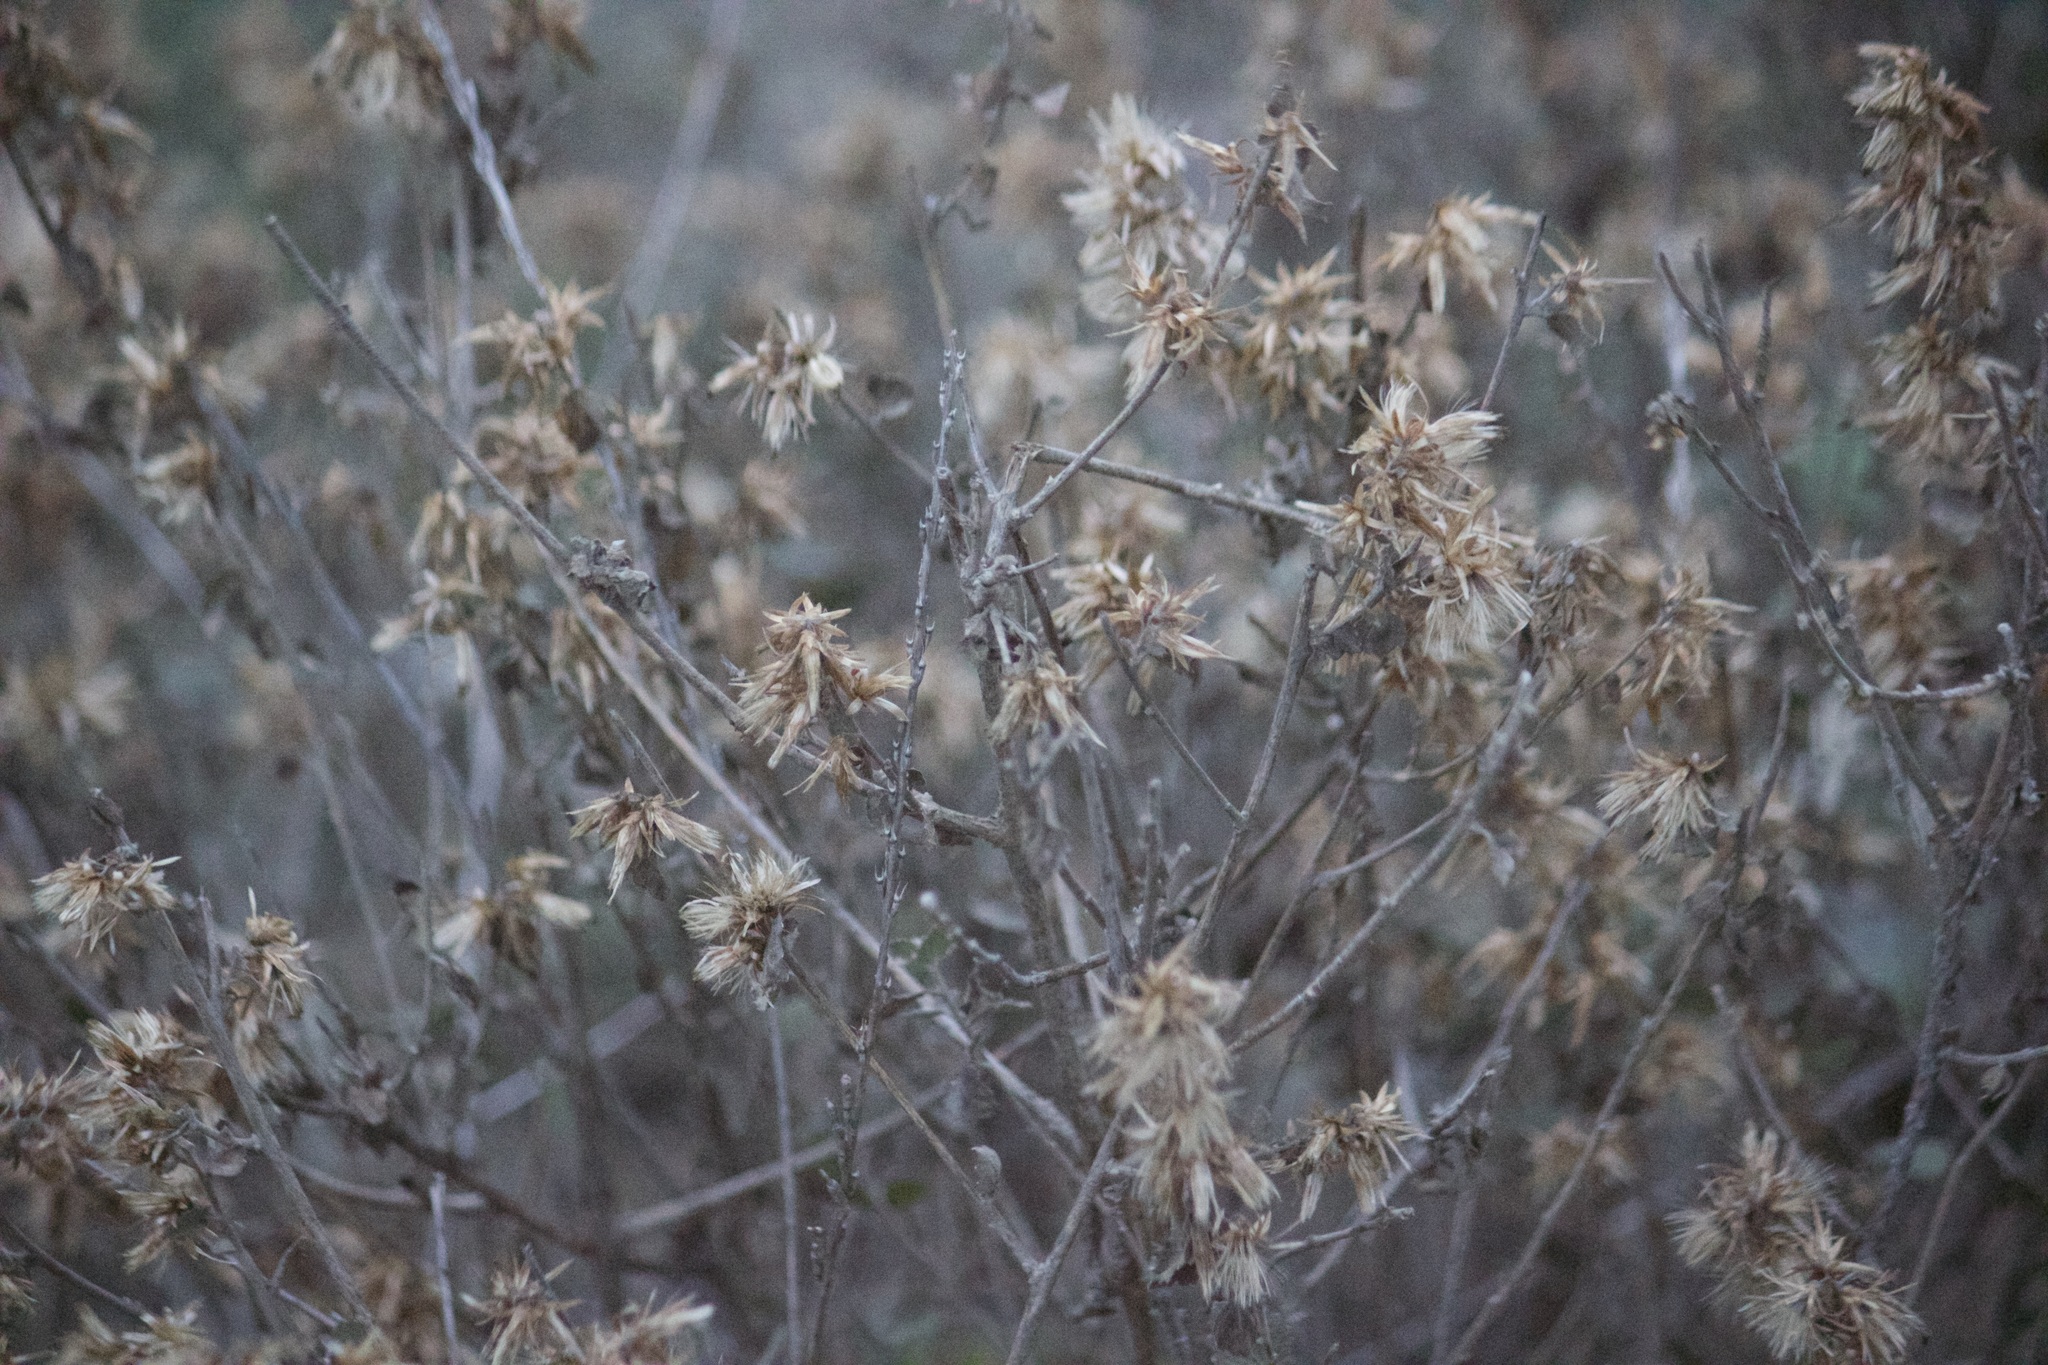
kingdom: Plantae
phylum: Tracheophyta
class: Magnoliopsida
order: Asterales
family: Asteraceae
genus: Brickellia
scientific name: Brickellia californica
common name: California brickellbush
